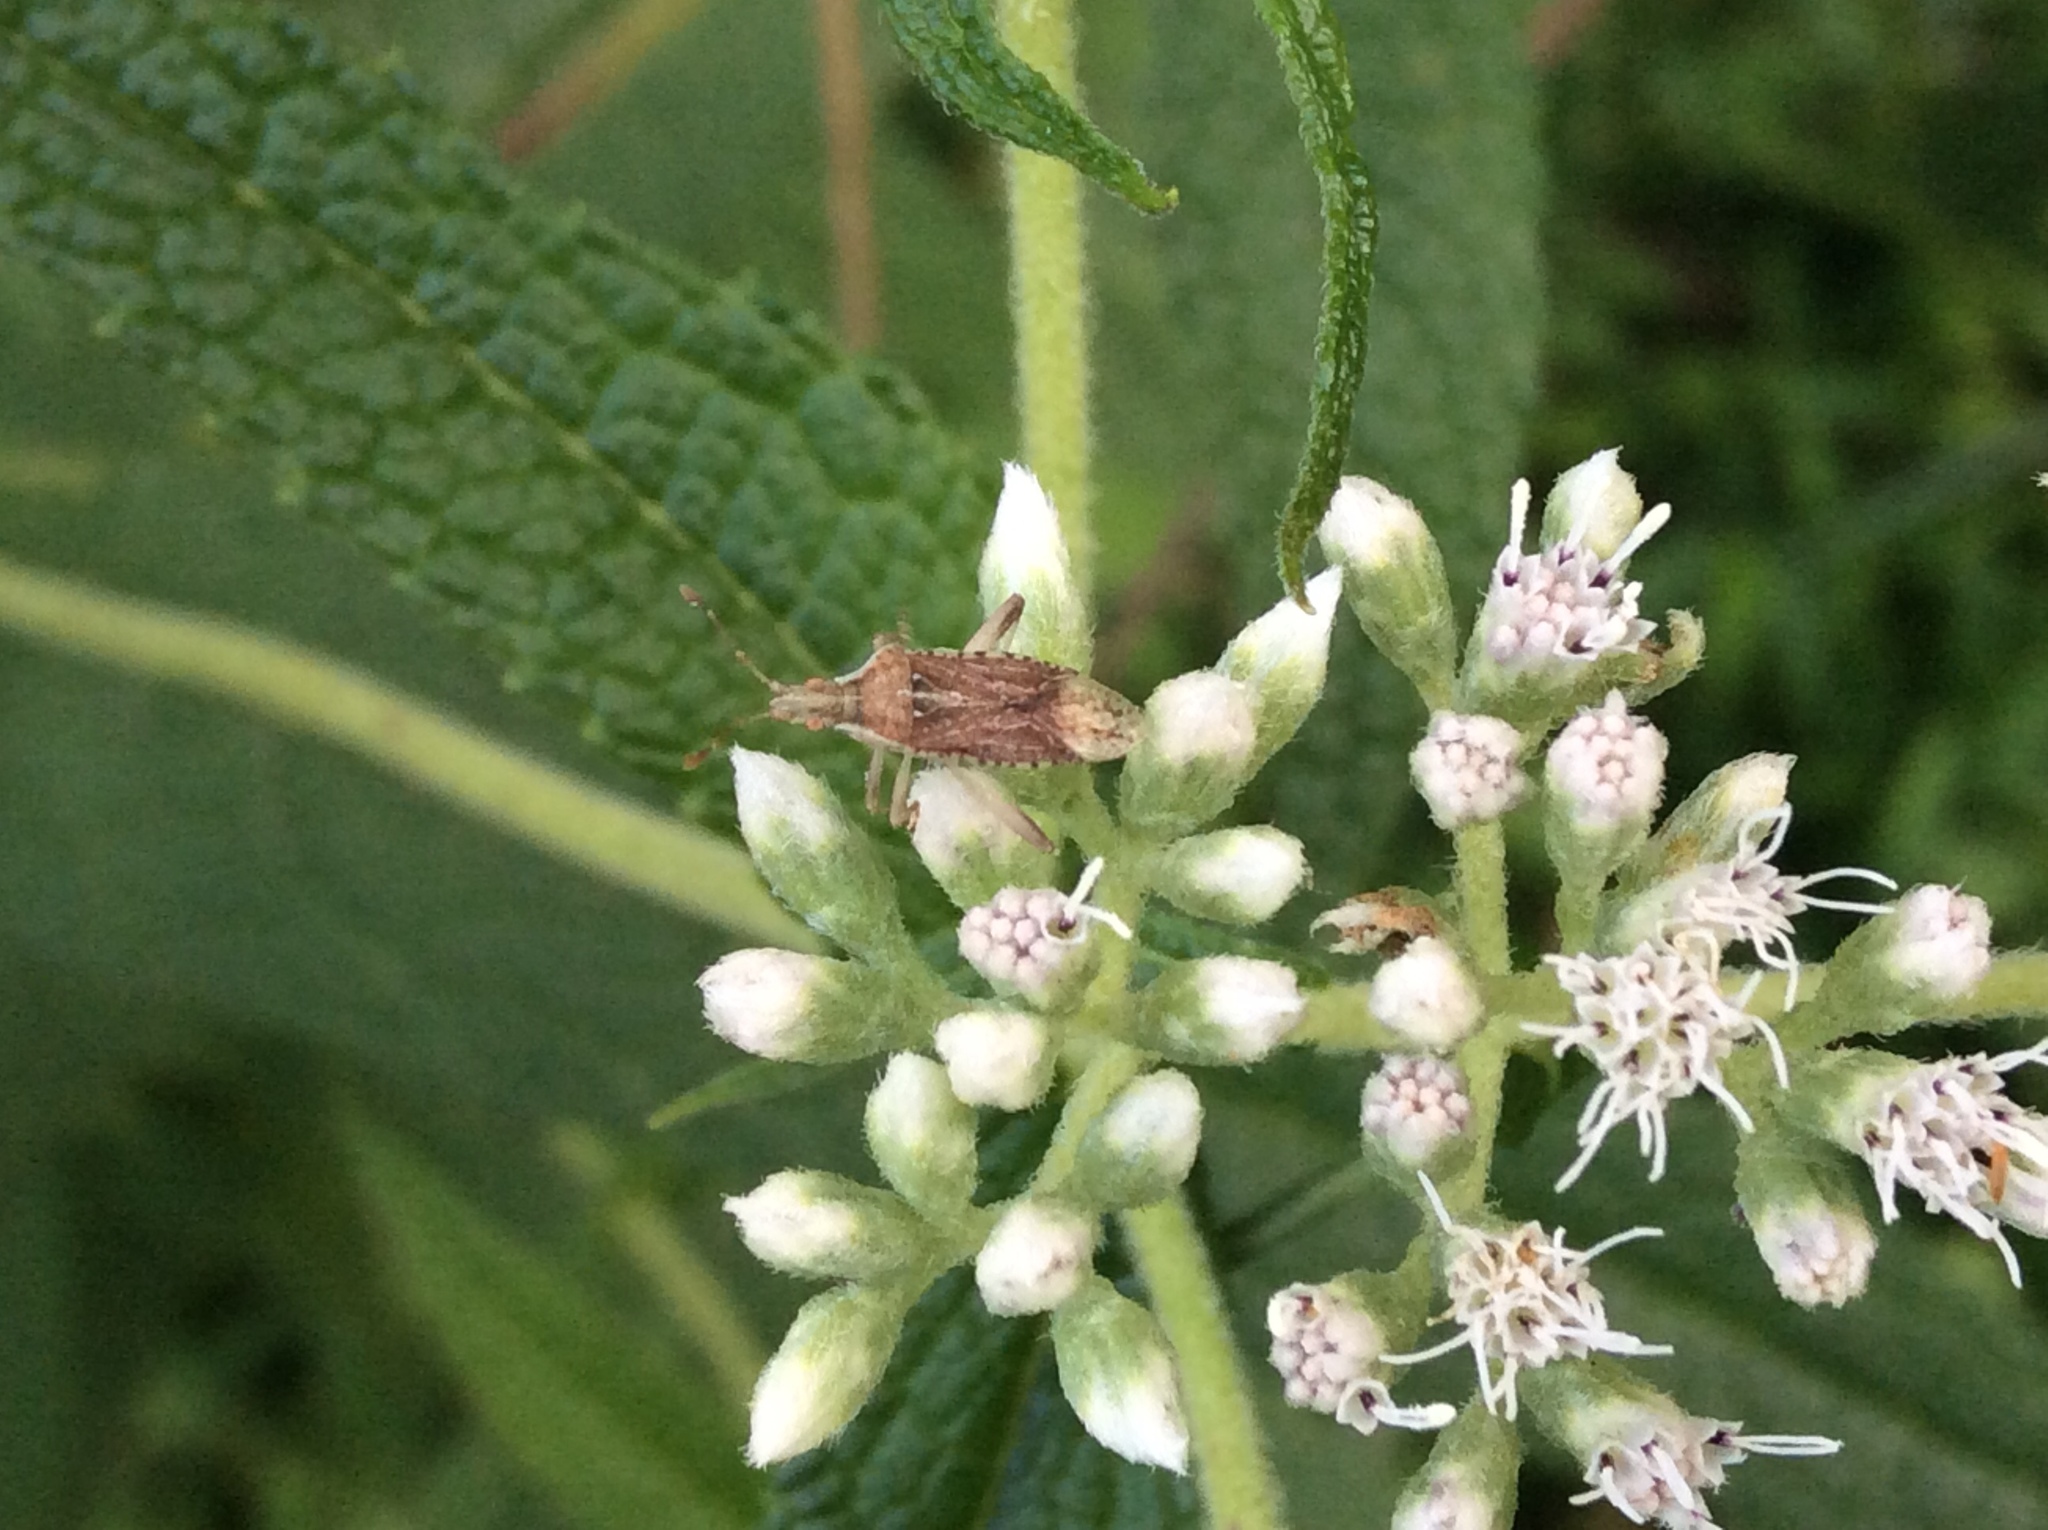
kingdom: Animalia
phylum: Arthropoda
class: Insecta
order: Hemiptera
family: Rhopalidae
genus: Harmostes
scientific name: Harmostes fraterculus
